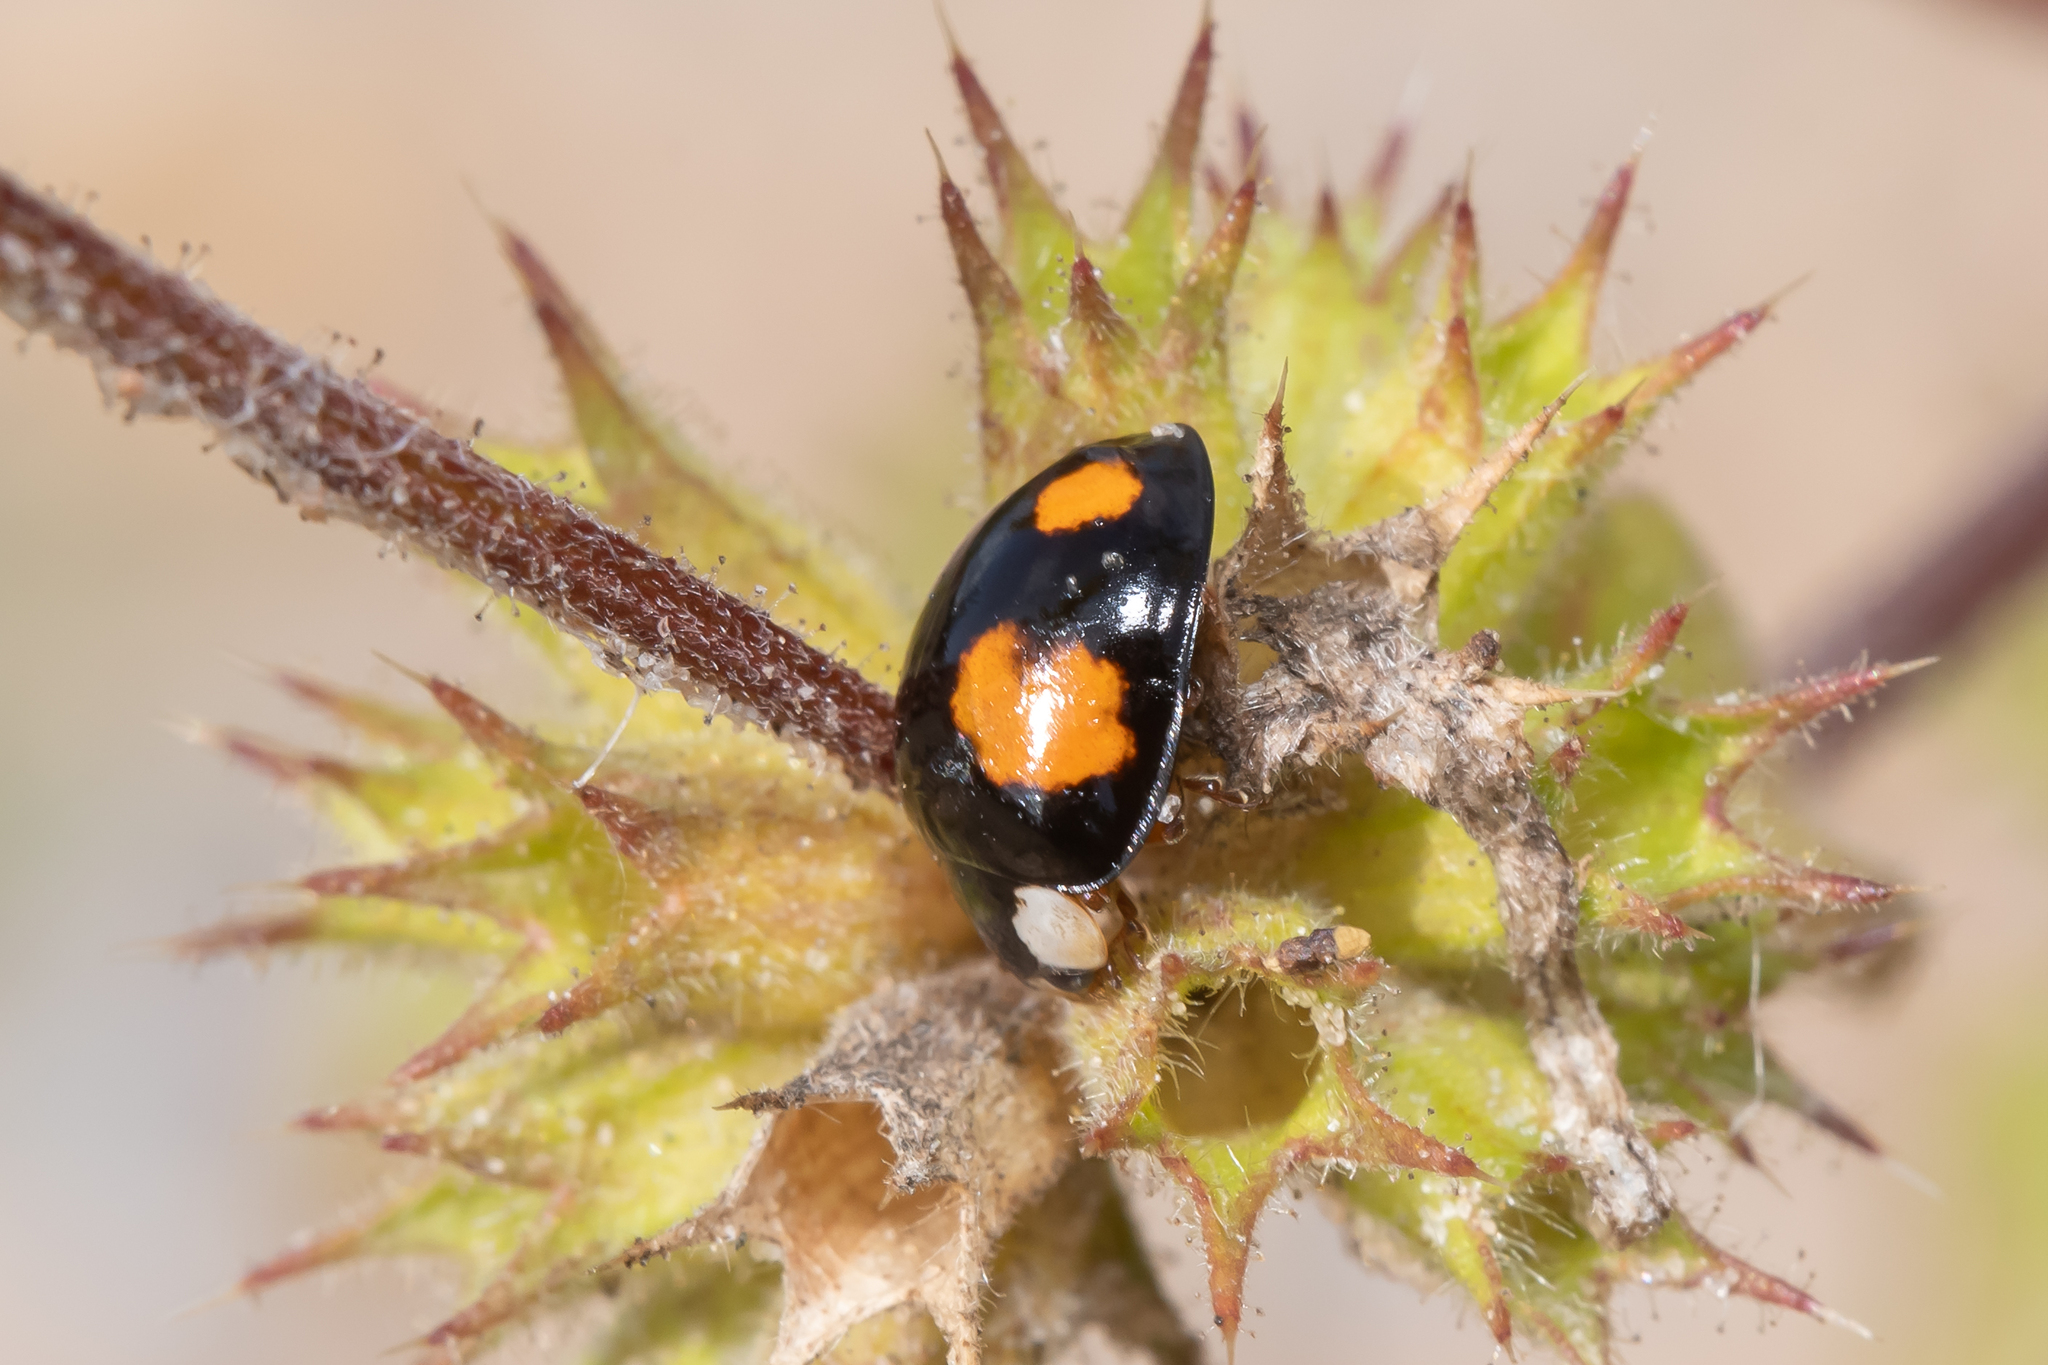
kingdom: Animalia
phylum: Arthropoda
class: Insecta
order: Coleoptera
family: Coccinellidae
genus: Harmonia
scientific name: Harmonia axyridis
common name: Harlequin ladybird
